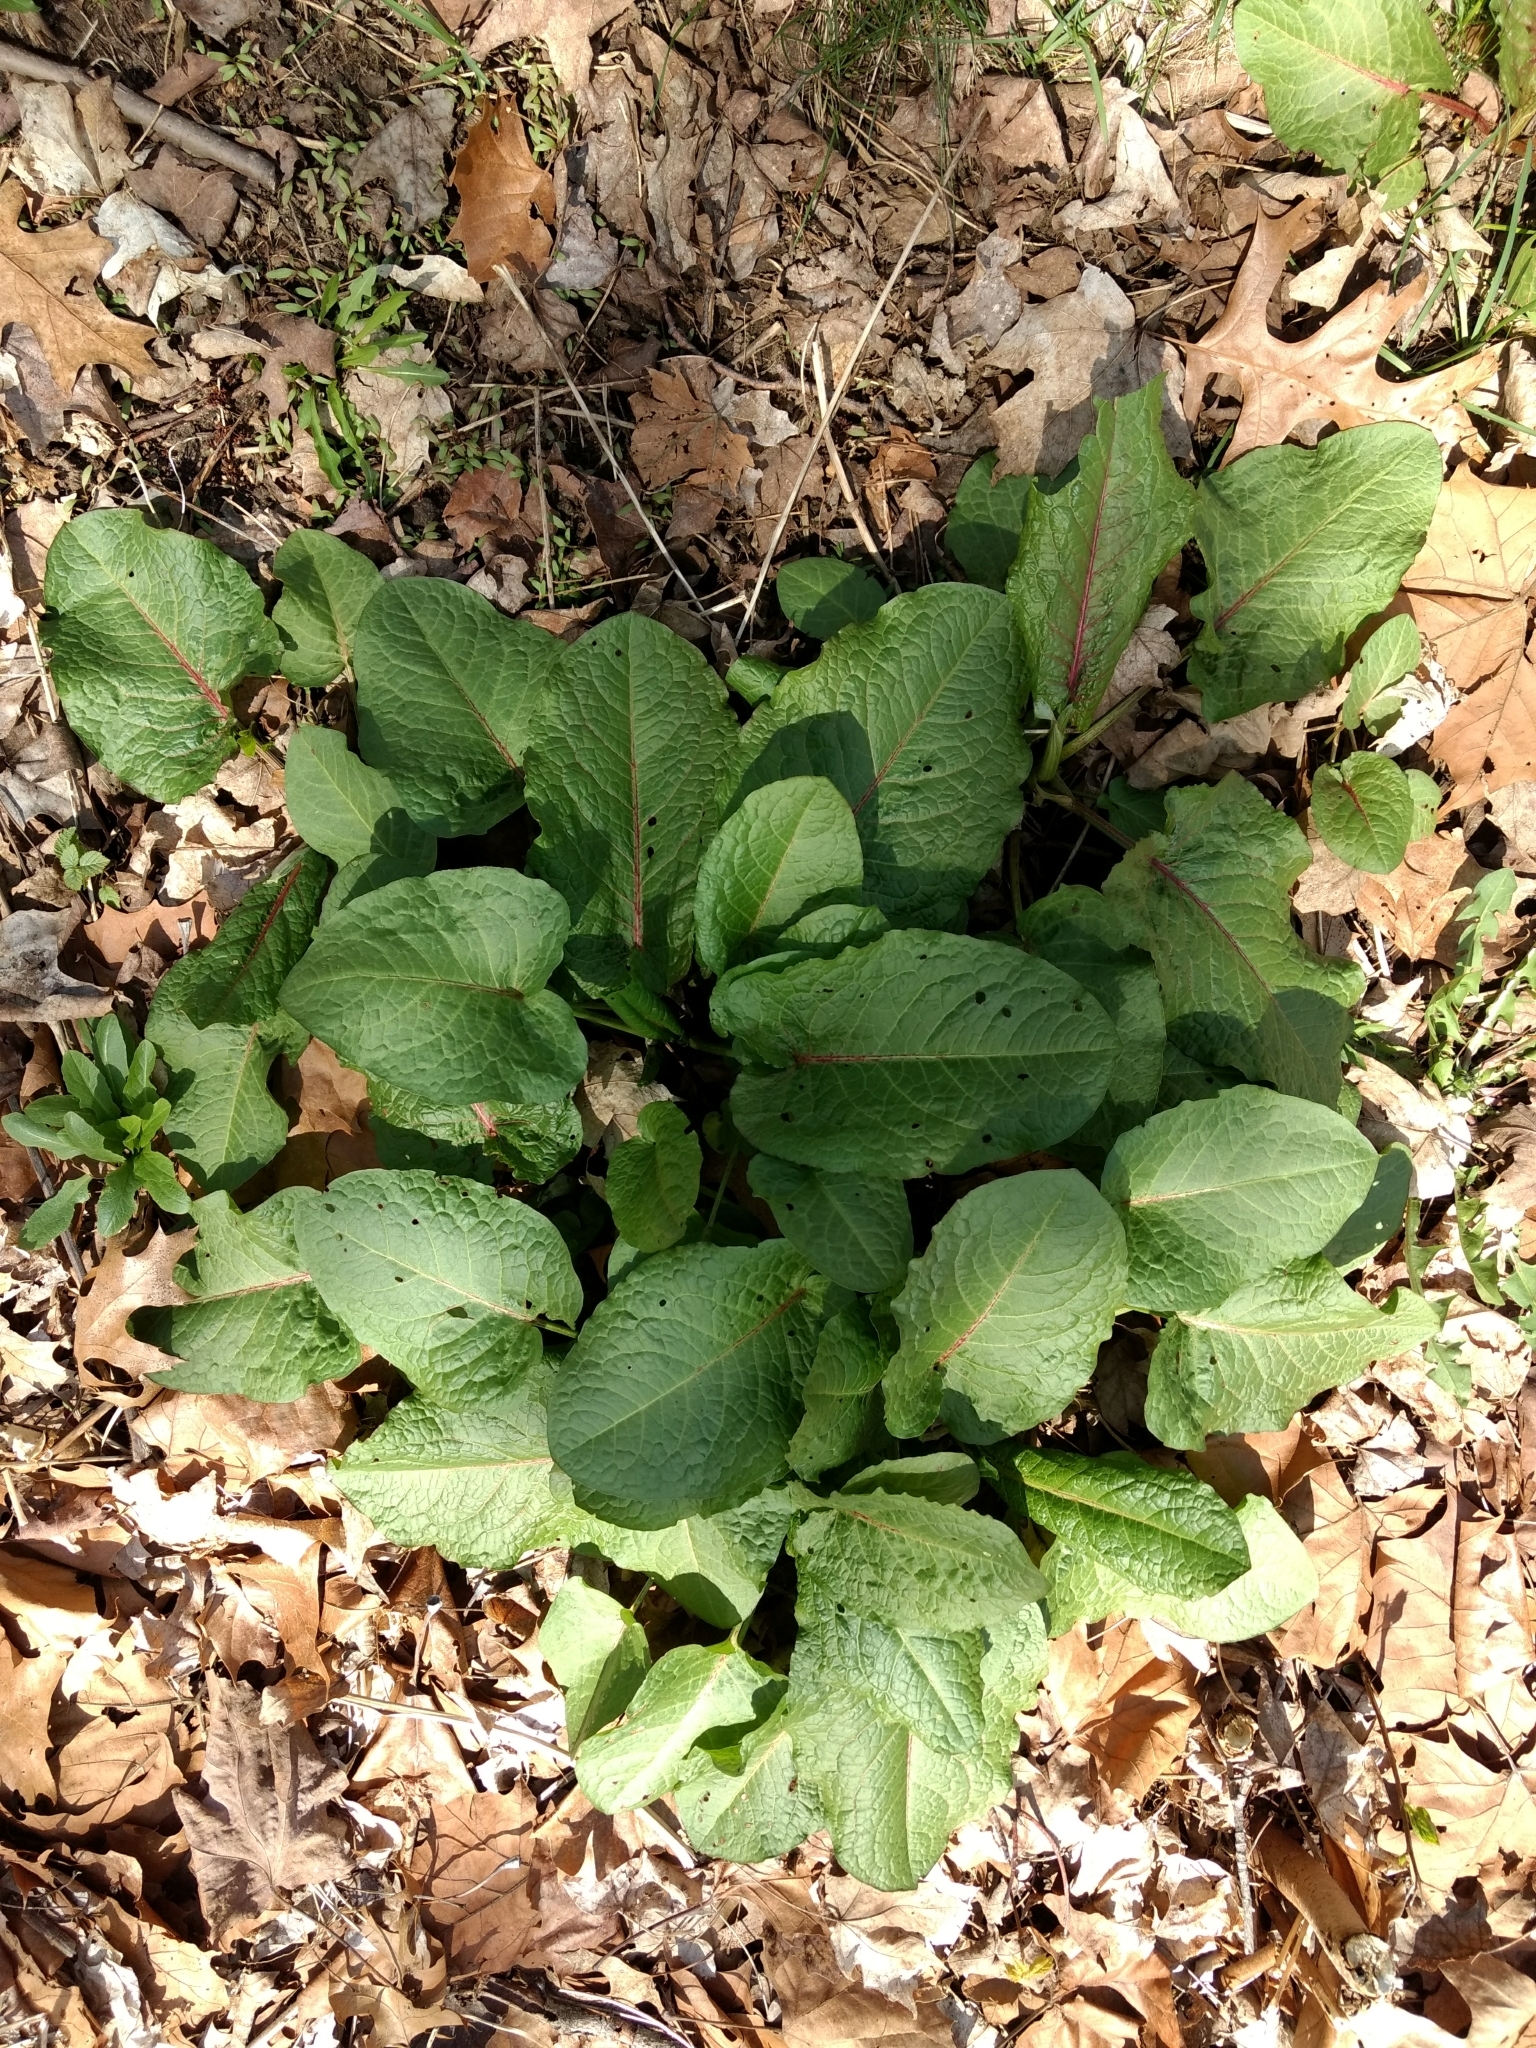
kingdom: Plantae
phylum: Tracheophyta
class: Magnoliopsida
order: Caryophyllales
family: Polygonaceae
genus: Rumex
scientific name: Rumex obtusifolius
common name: Bitter dock
